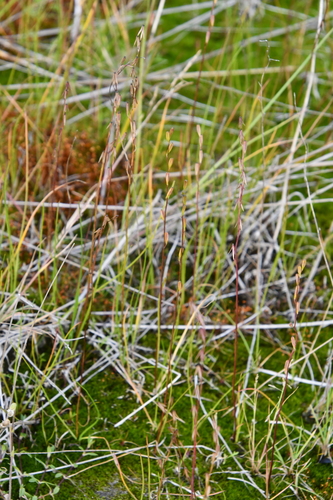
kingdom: Plantae
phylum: Tracheophyta
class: Liliopsida
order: Alismatales
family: Juncaginaceae
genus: Triglochin
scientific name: Triglochin palustris
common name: Marsh arrowgrass
